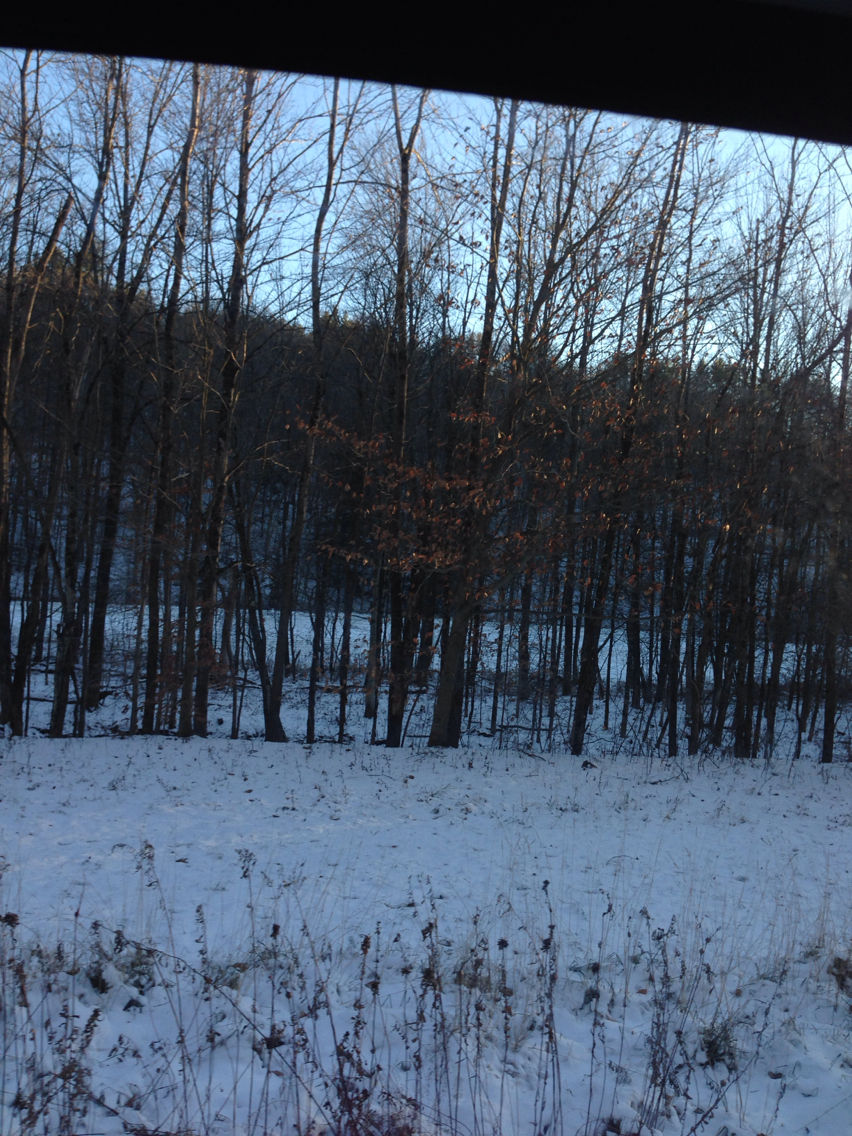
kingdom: Plantae
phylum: Tracheophyta
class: Magnoliopsida
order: Fagales
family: Fagaceae
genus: Fagus
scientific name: Fagus grandifolia
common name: American beech
